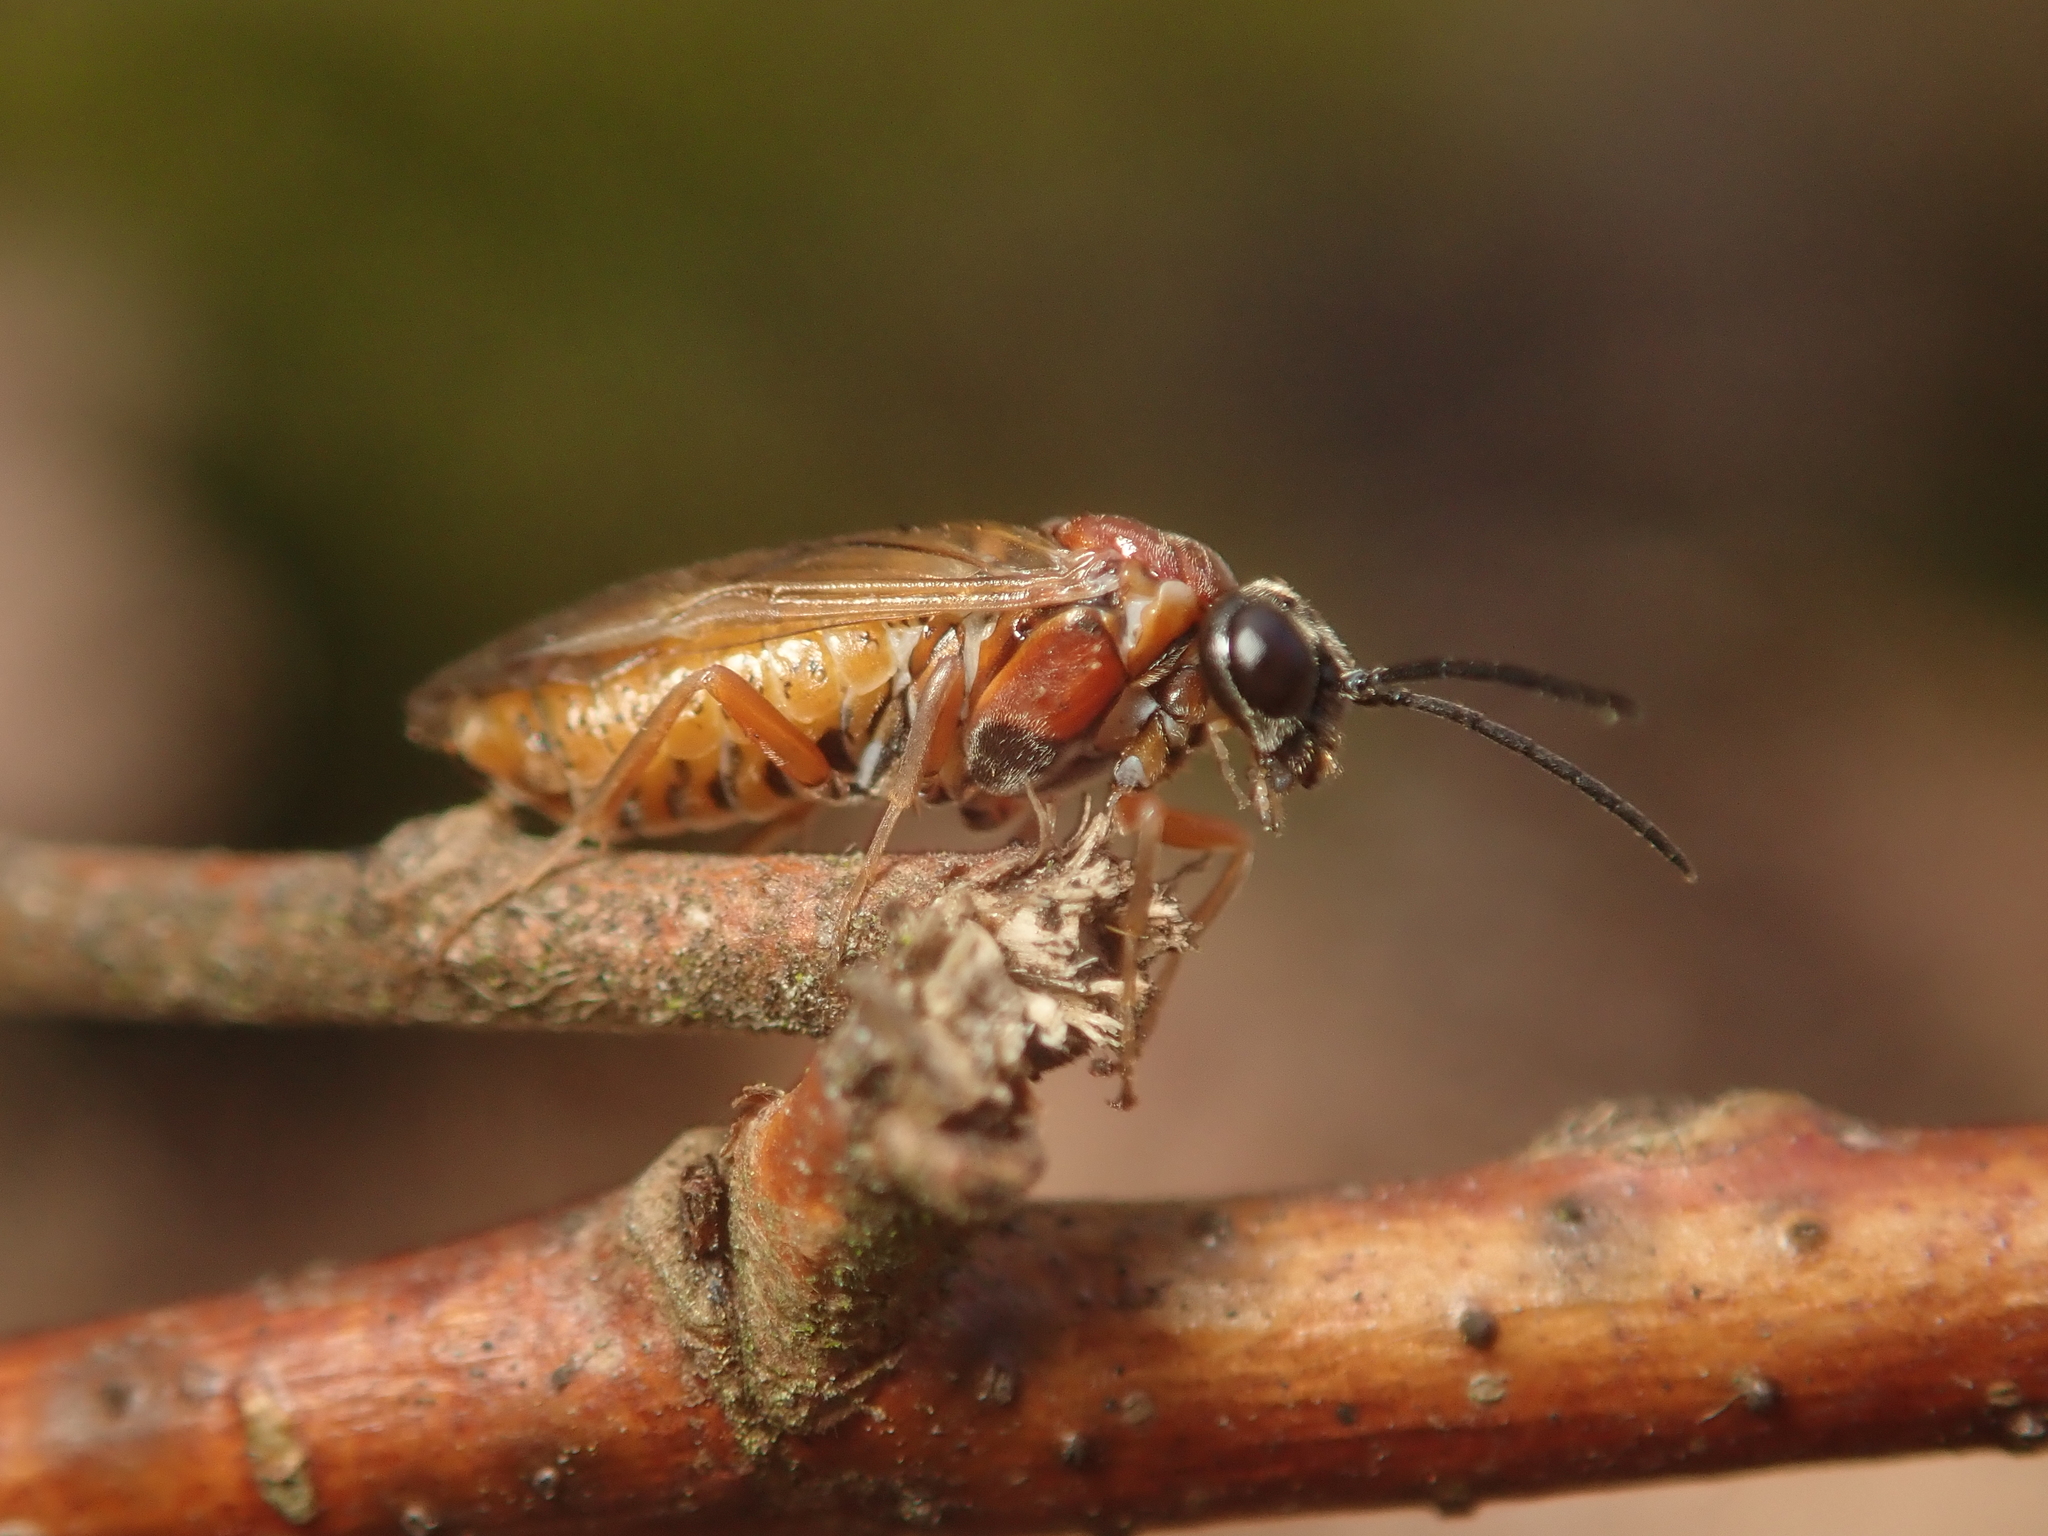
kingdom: Animalia
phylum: Arthropoda
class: Insecta
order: Hymenoptera
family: Tenthredinidae
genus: Periclista
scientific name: Periclista albida
